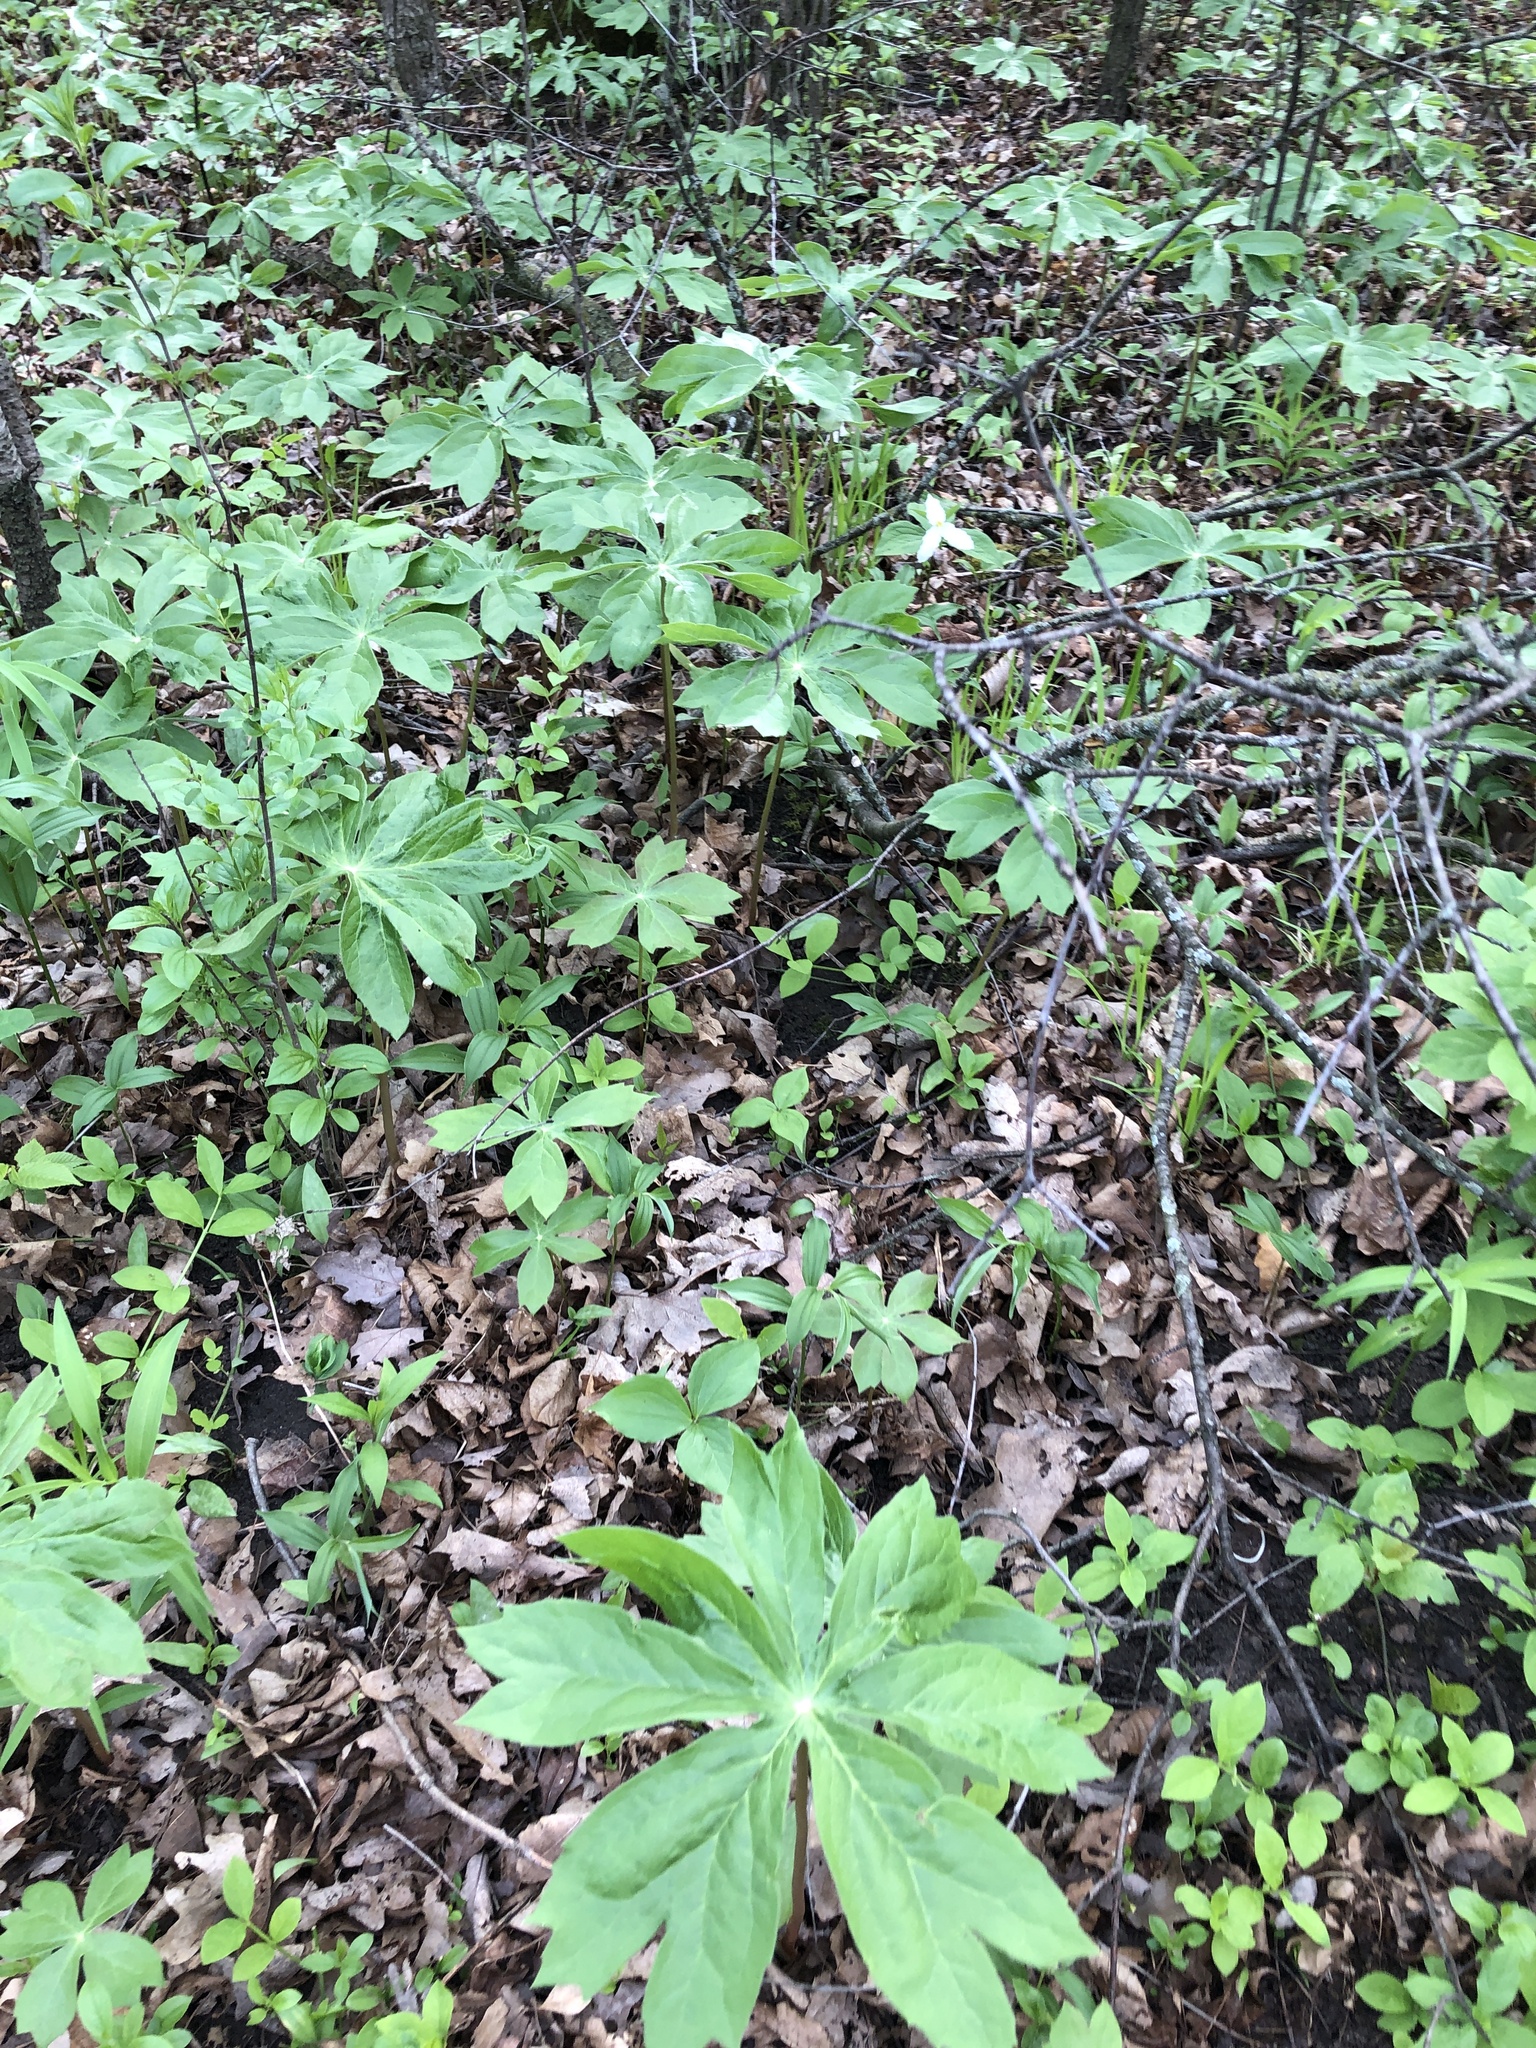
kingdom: Plantae
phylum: Tracheophyta
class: Magnoliopsida
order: Ranunculales
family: Berberidaceae
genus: Podophyllum
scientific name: Podophyllum peltatum
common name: Wild mandrake
